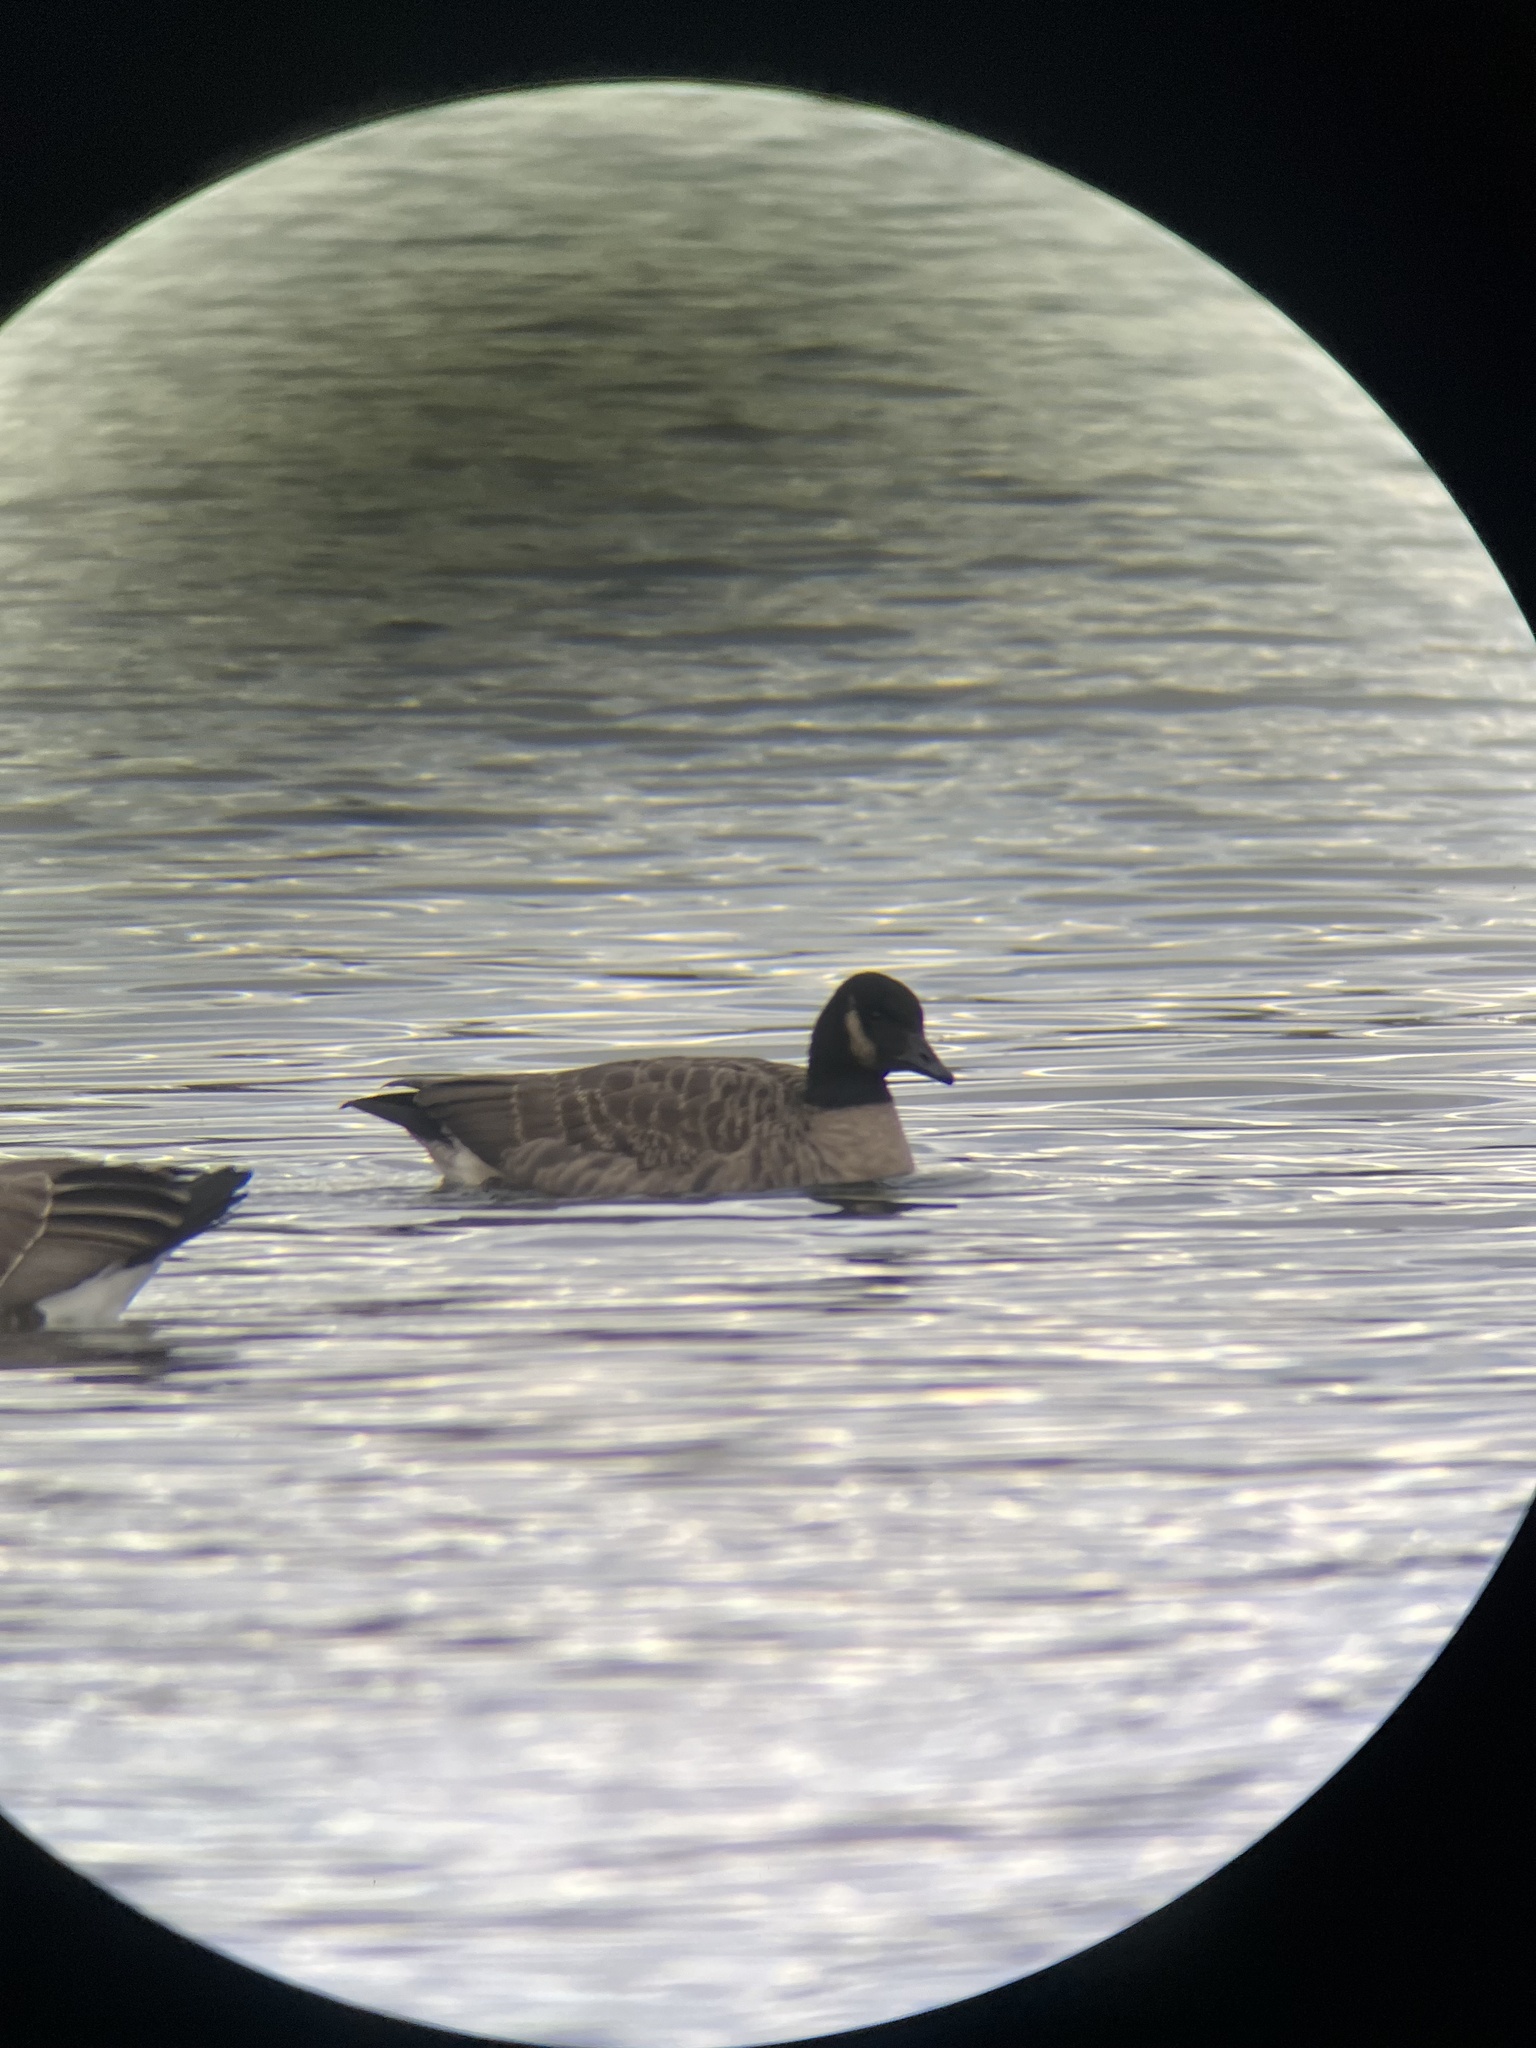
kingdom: Animalia
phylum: Chordata
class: Aves
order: Anseriformes
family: Anatidae
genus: Branta
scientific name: Branta hutchinsii
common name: Cackling goose
